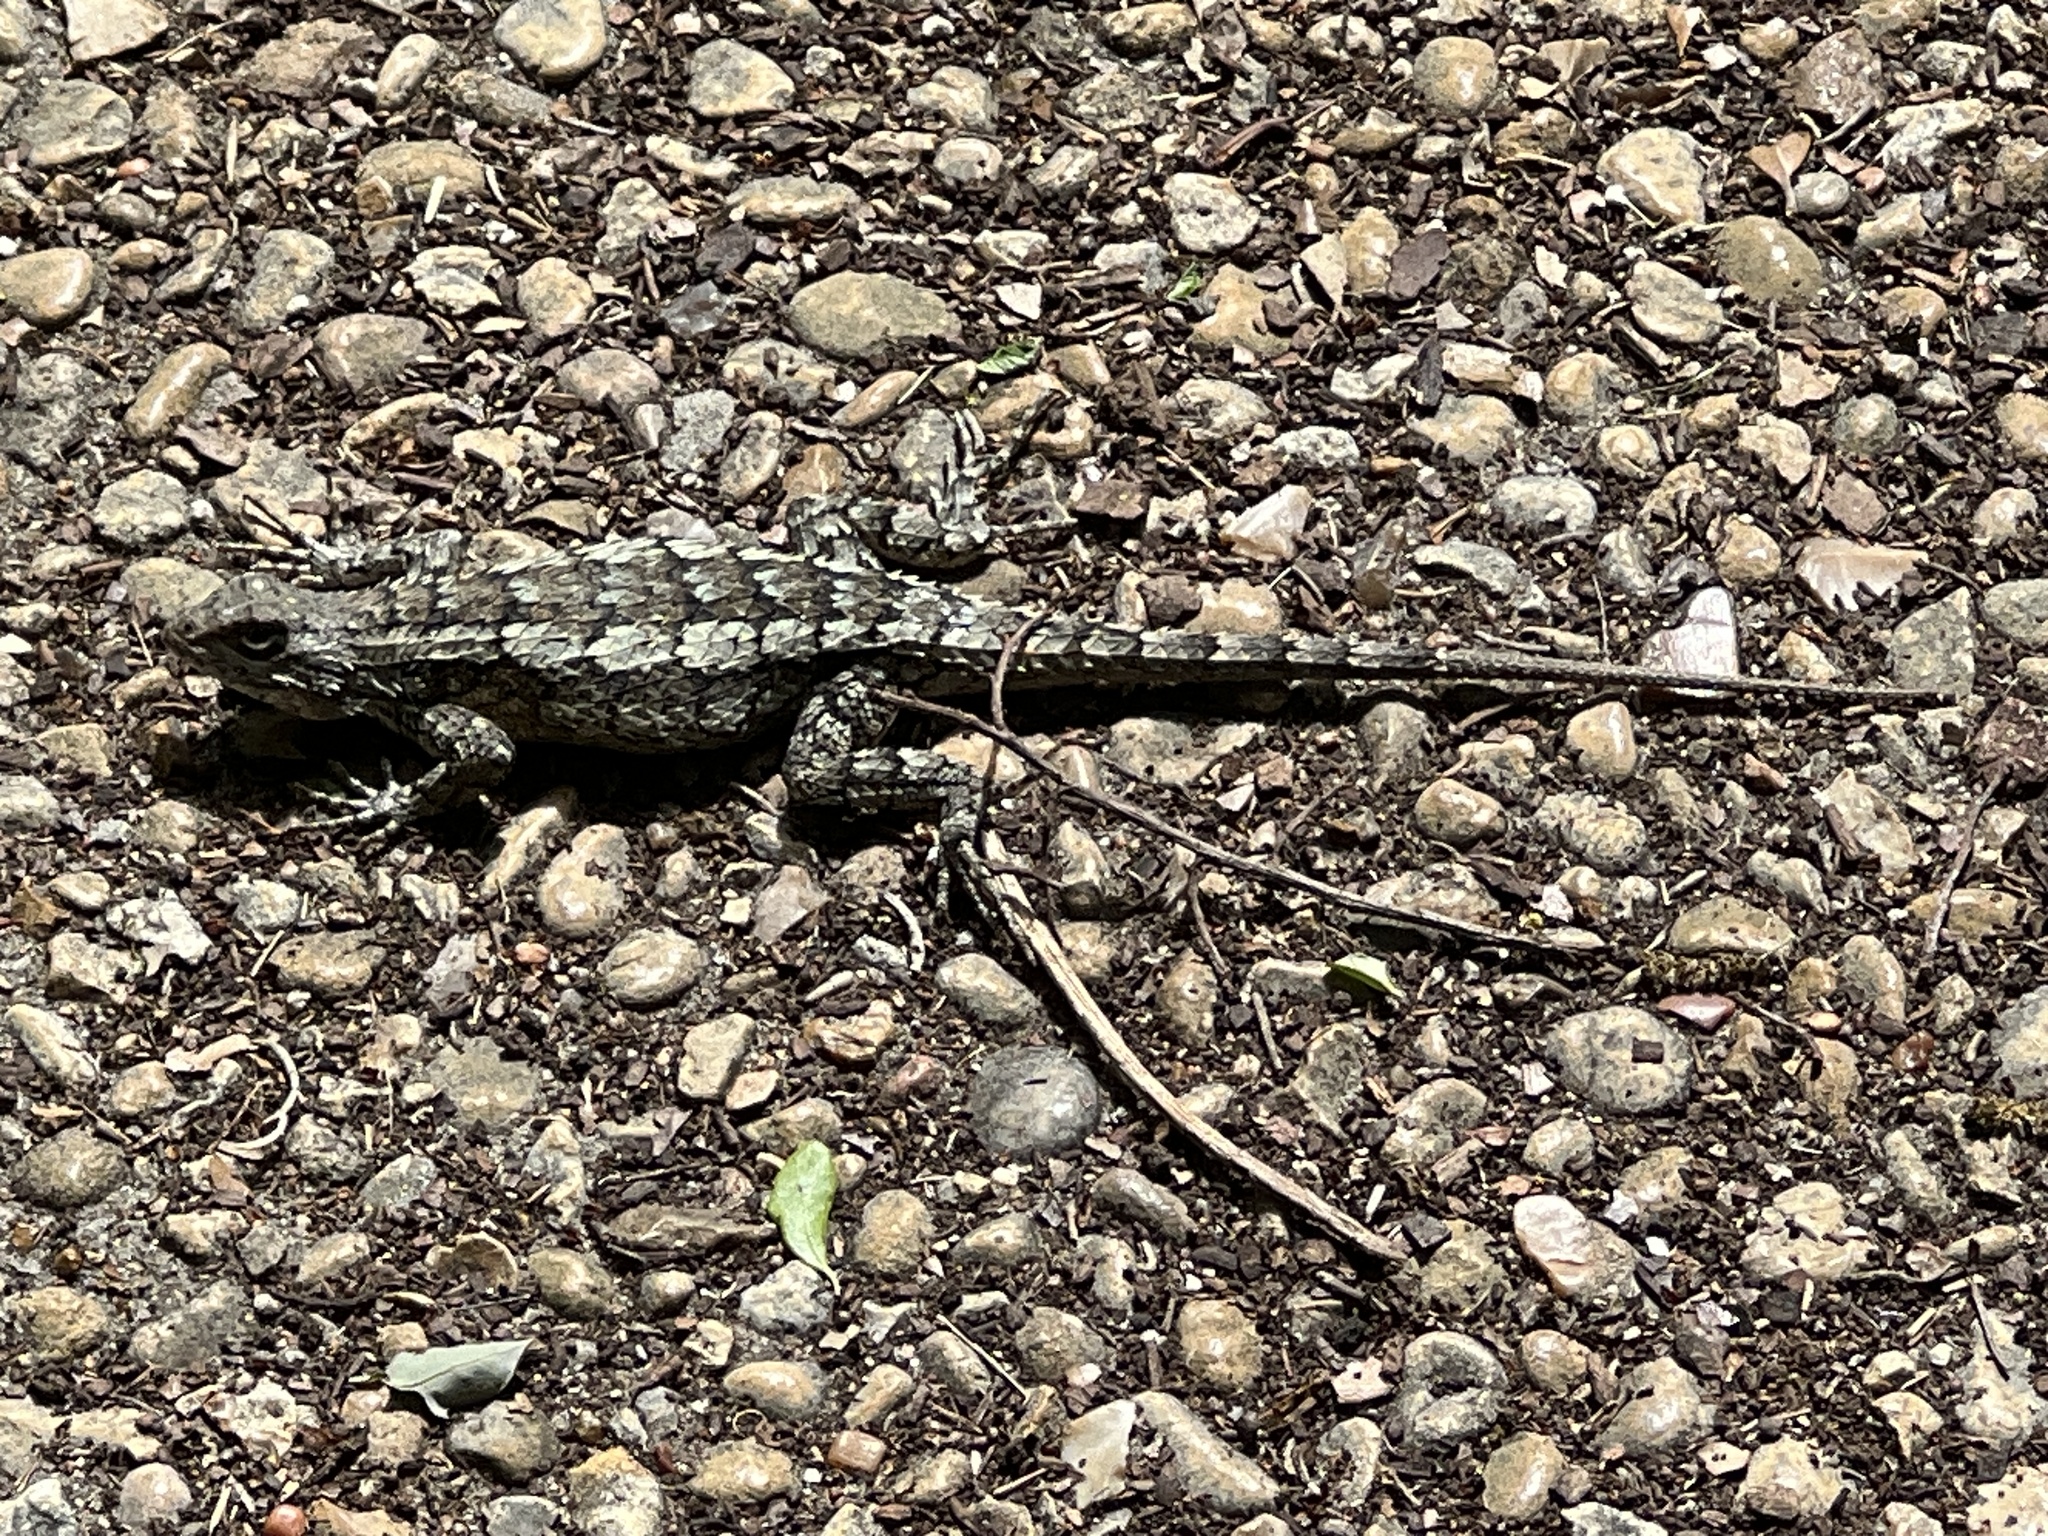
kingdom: Animalia
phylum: Chordata
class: Squamata
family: Phrynosomatidae
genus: Sceloporus
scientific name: Sceloporus olivaceus
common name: Texas spiny lizard
